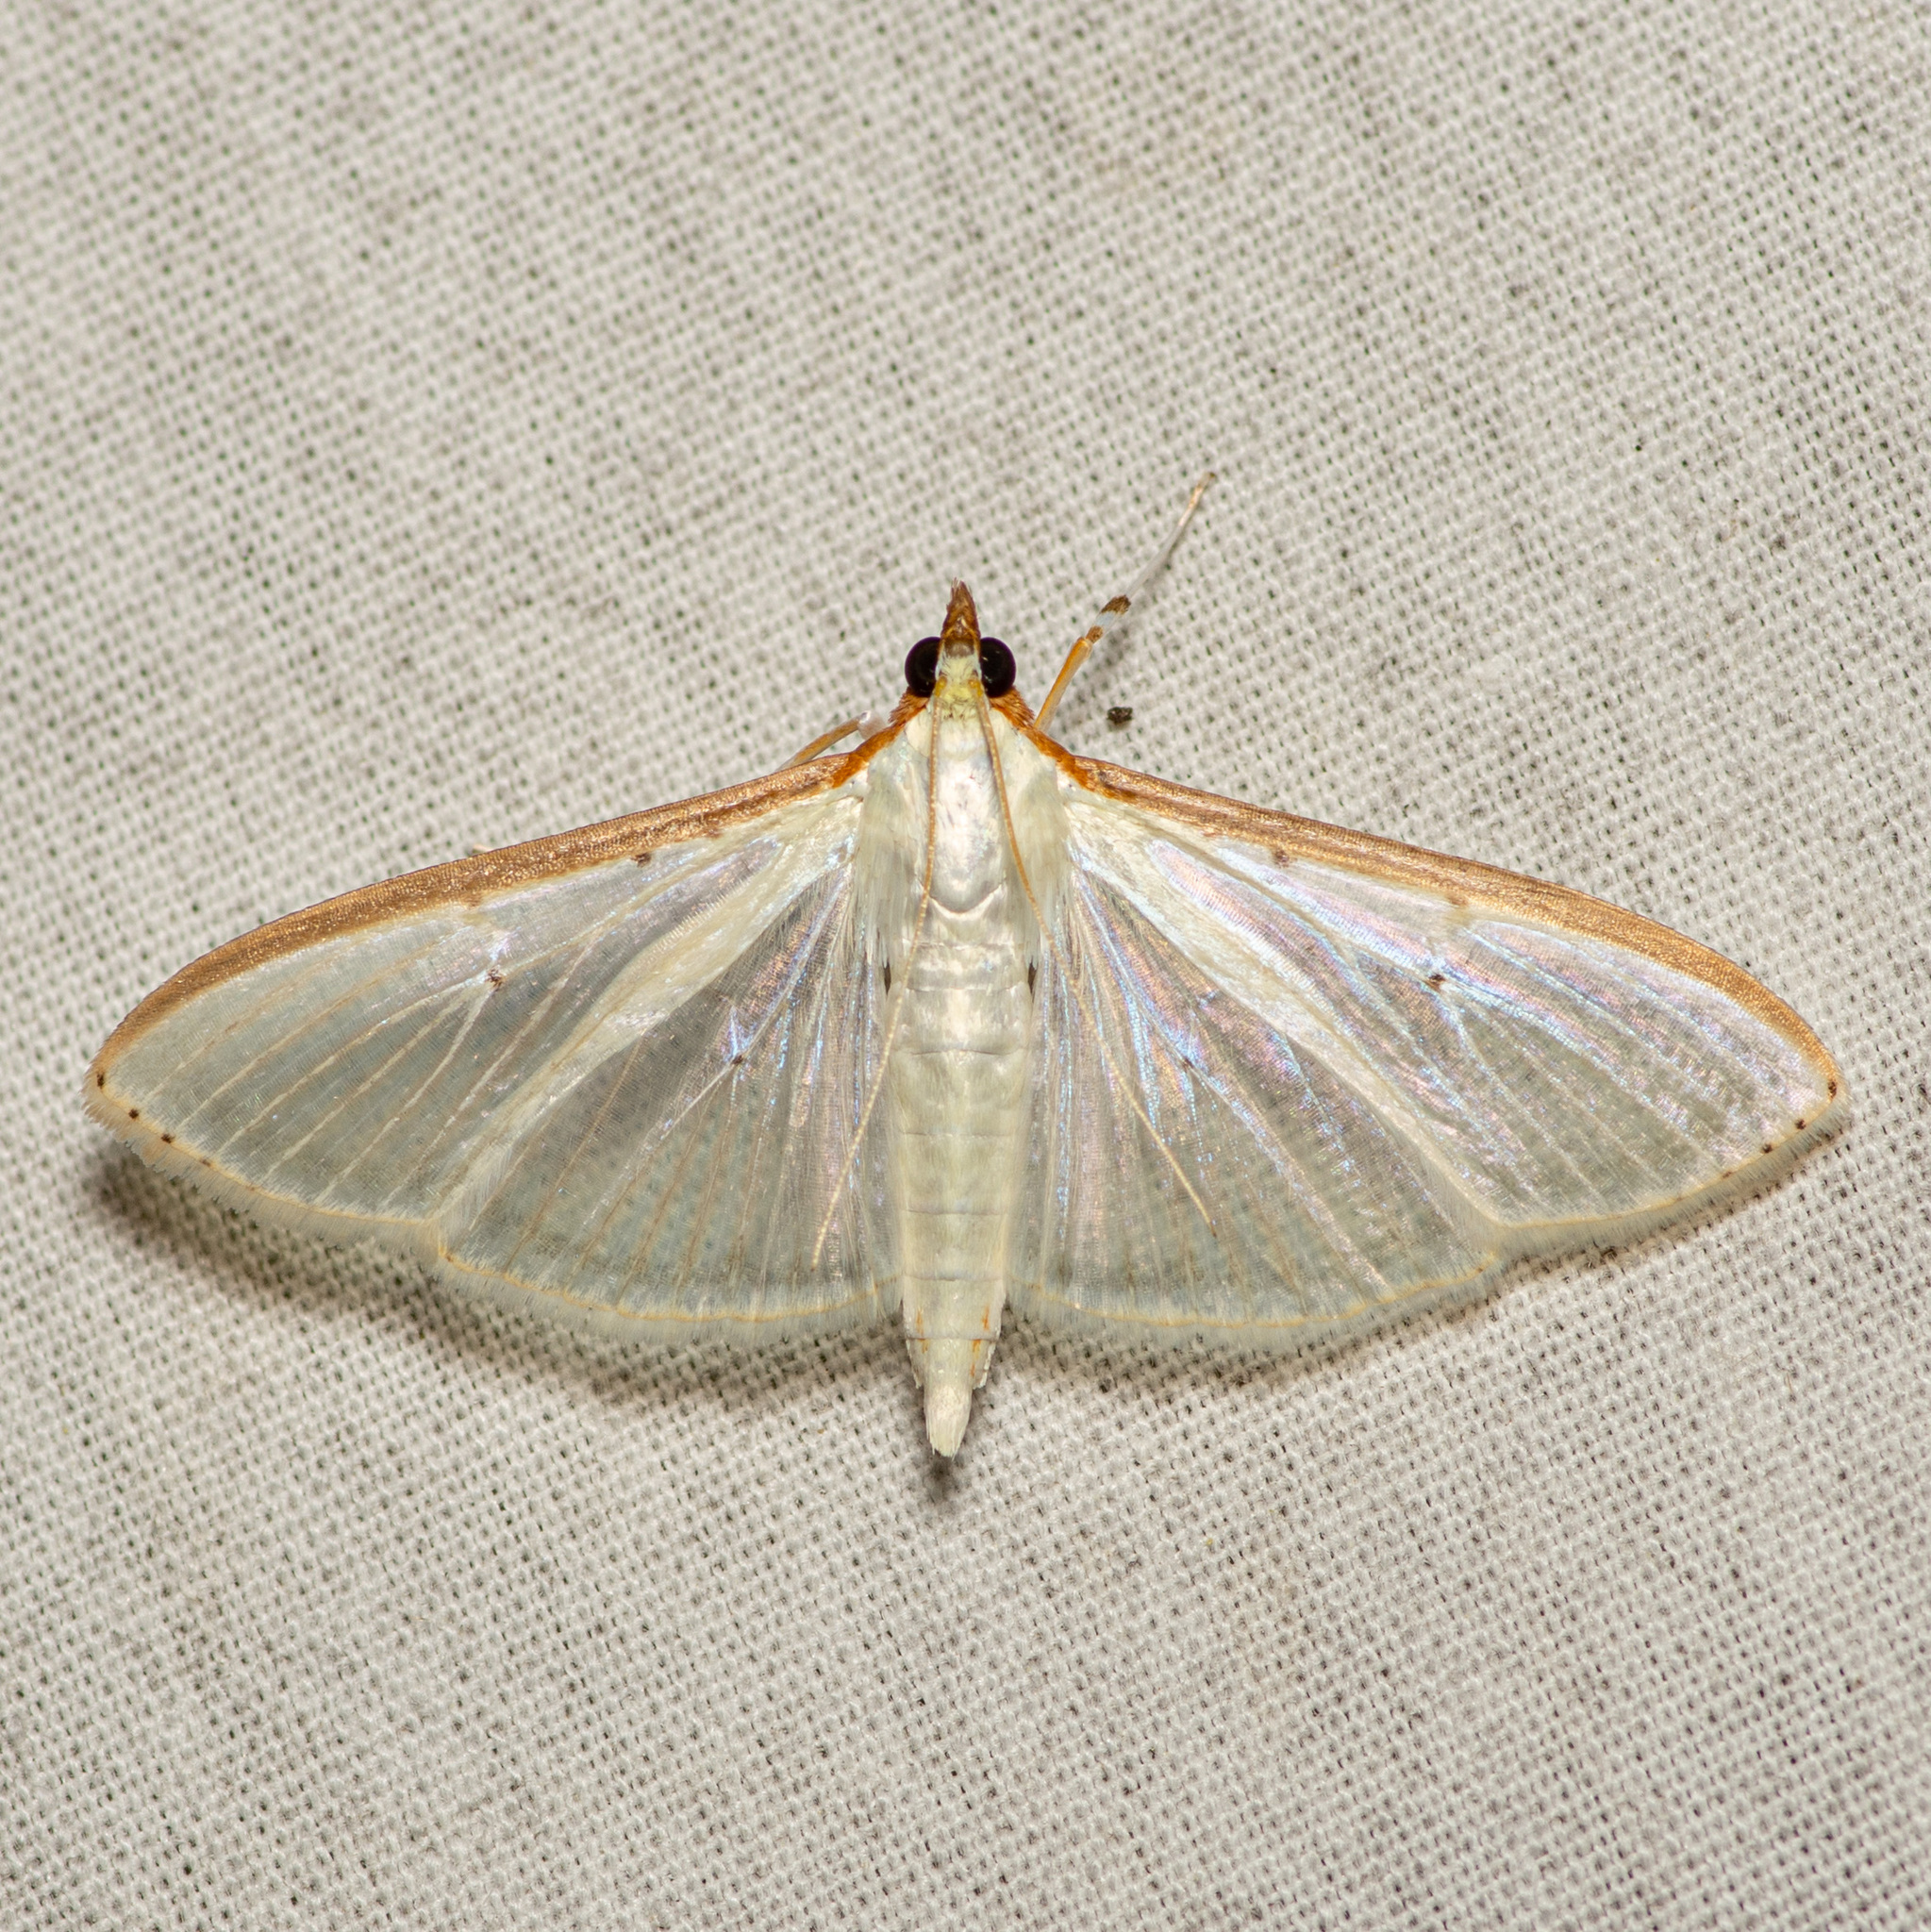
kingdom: Animalia
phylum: Arthropoda
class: Insecta
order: Lepidoptera
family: Crambidae
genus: Palpita
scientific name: Palpita quadristigmalis
